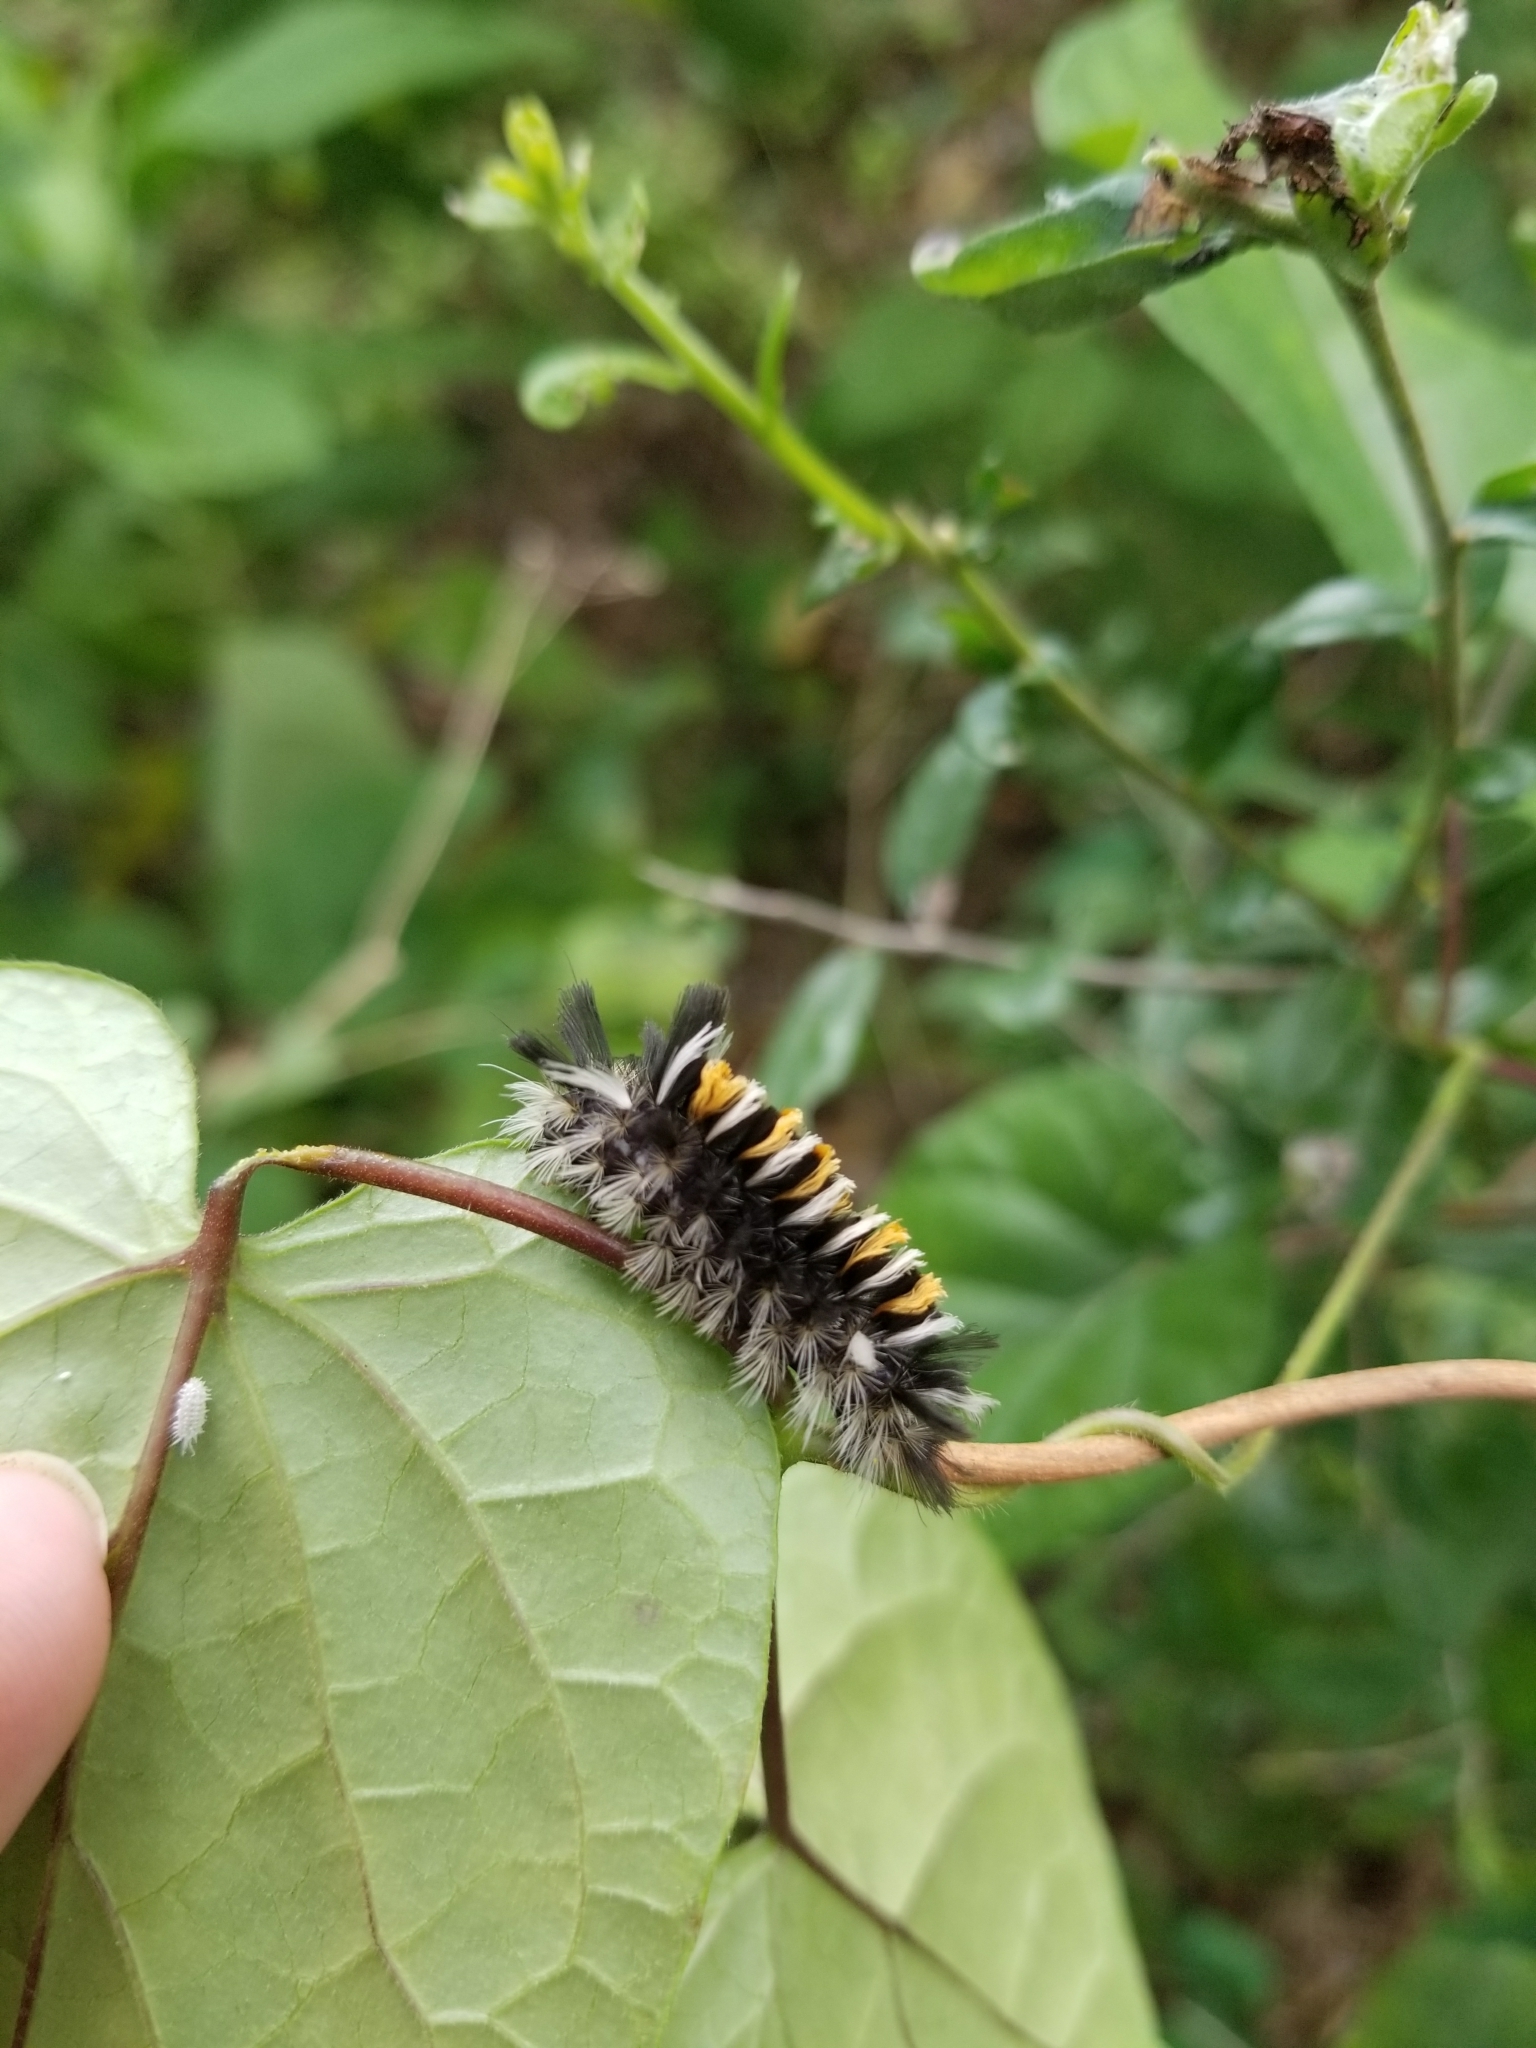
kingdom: Animalia
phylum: Arthropoda
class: Insecta
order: Lepidoptera
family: Erebidae
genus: Euchaetes
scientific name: Euchaetes egle
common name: Milkweed tussock moth
